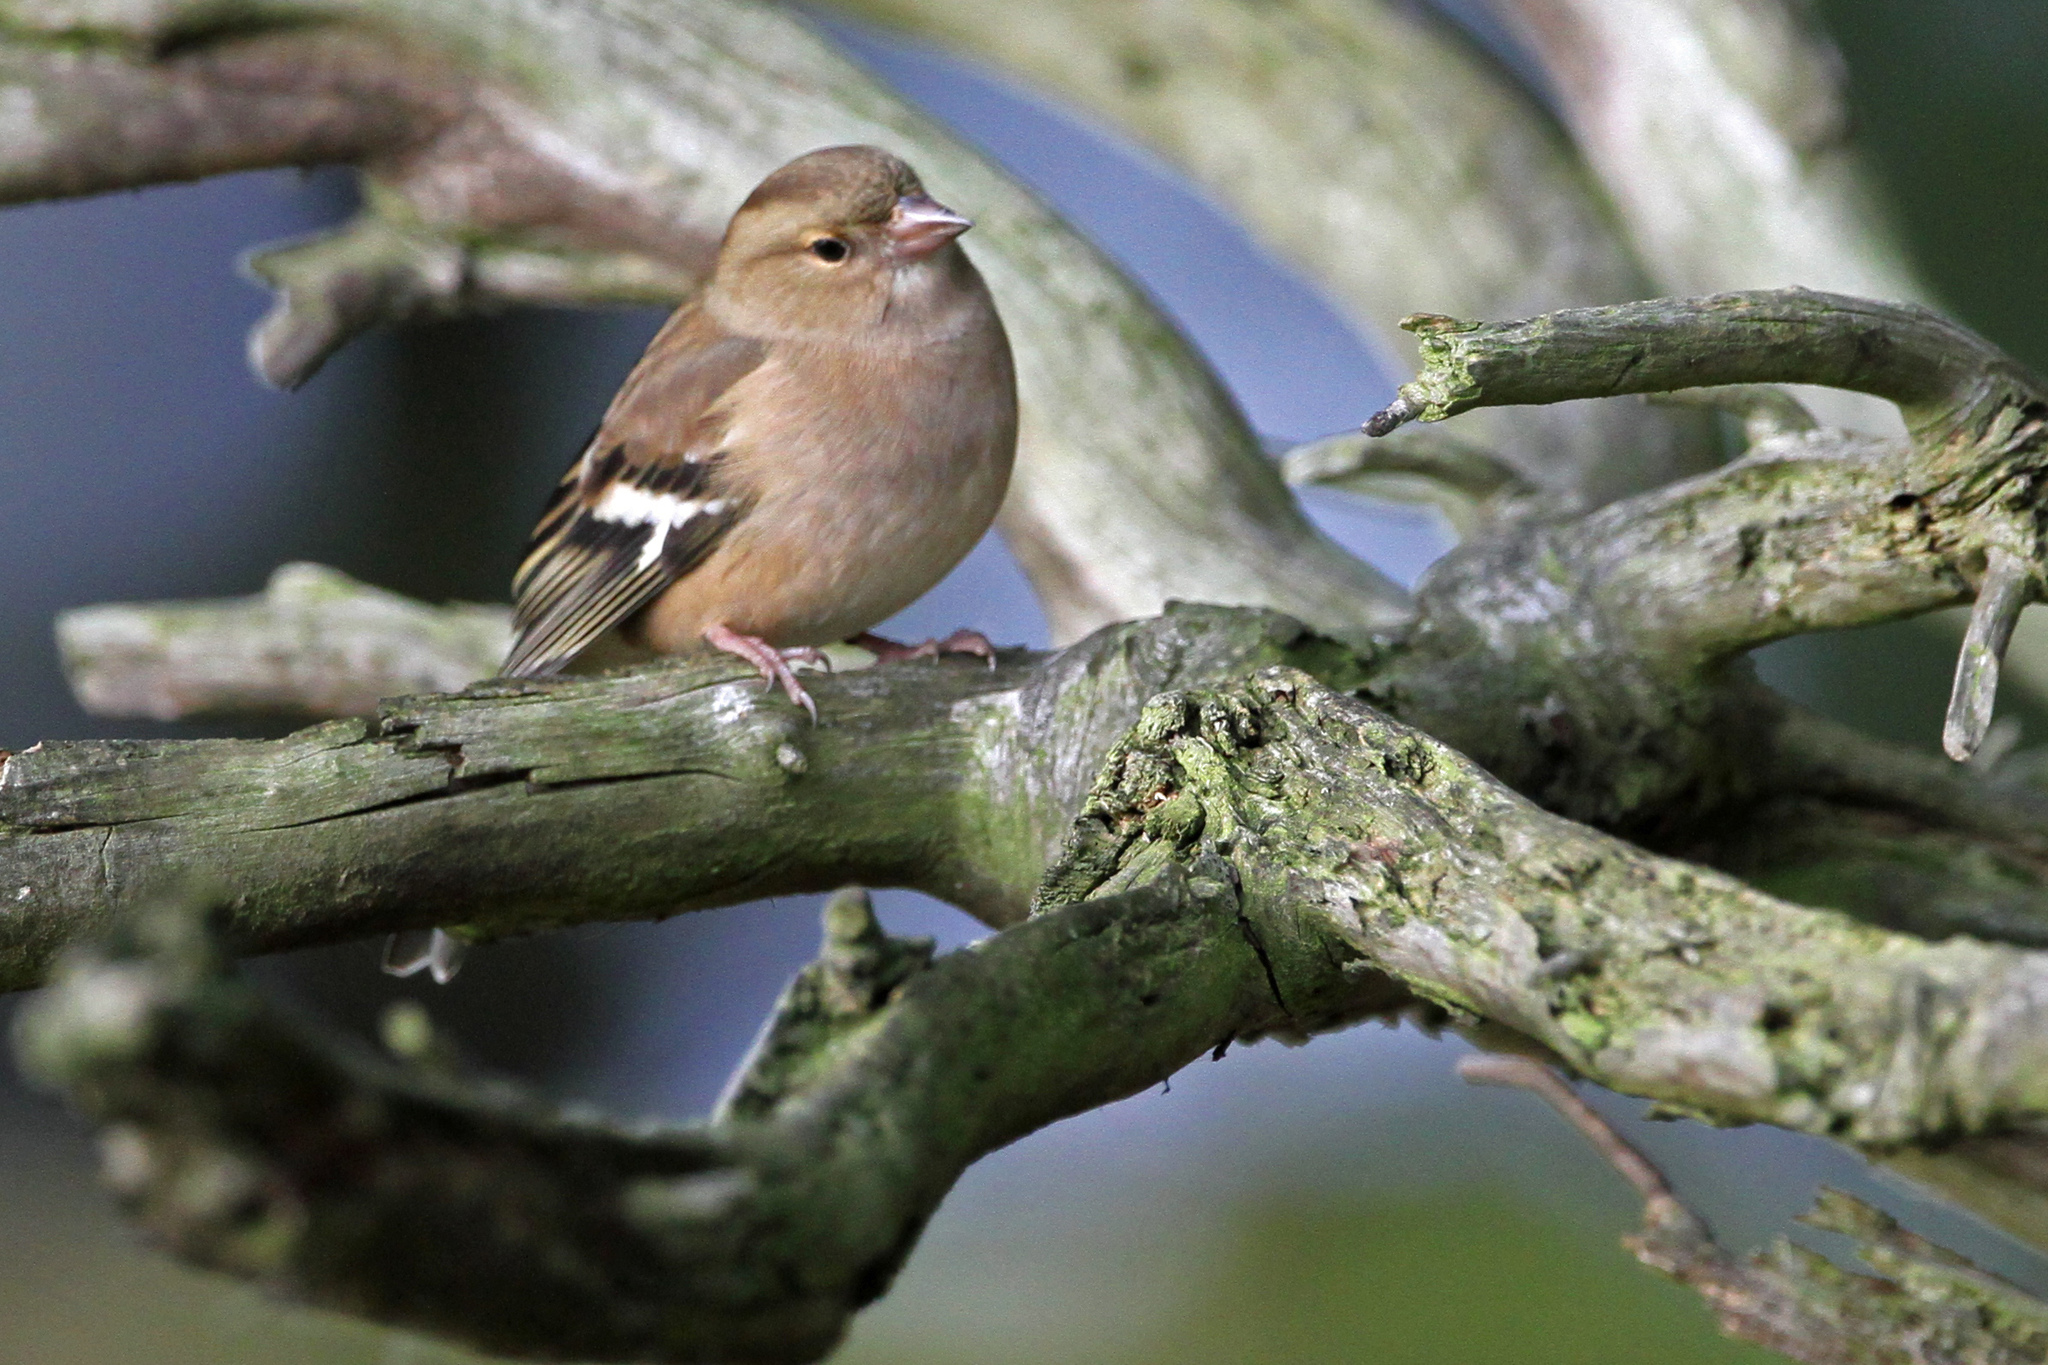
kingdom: Animalia
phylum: Chordata
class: Aves
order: Passeriformes
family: Fringillidae
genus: Fringilla
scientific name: Fringilla coelebs
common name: Common chaffinch
